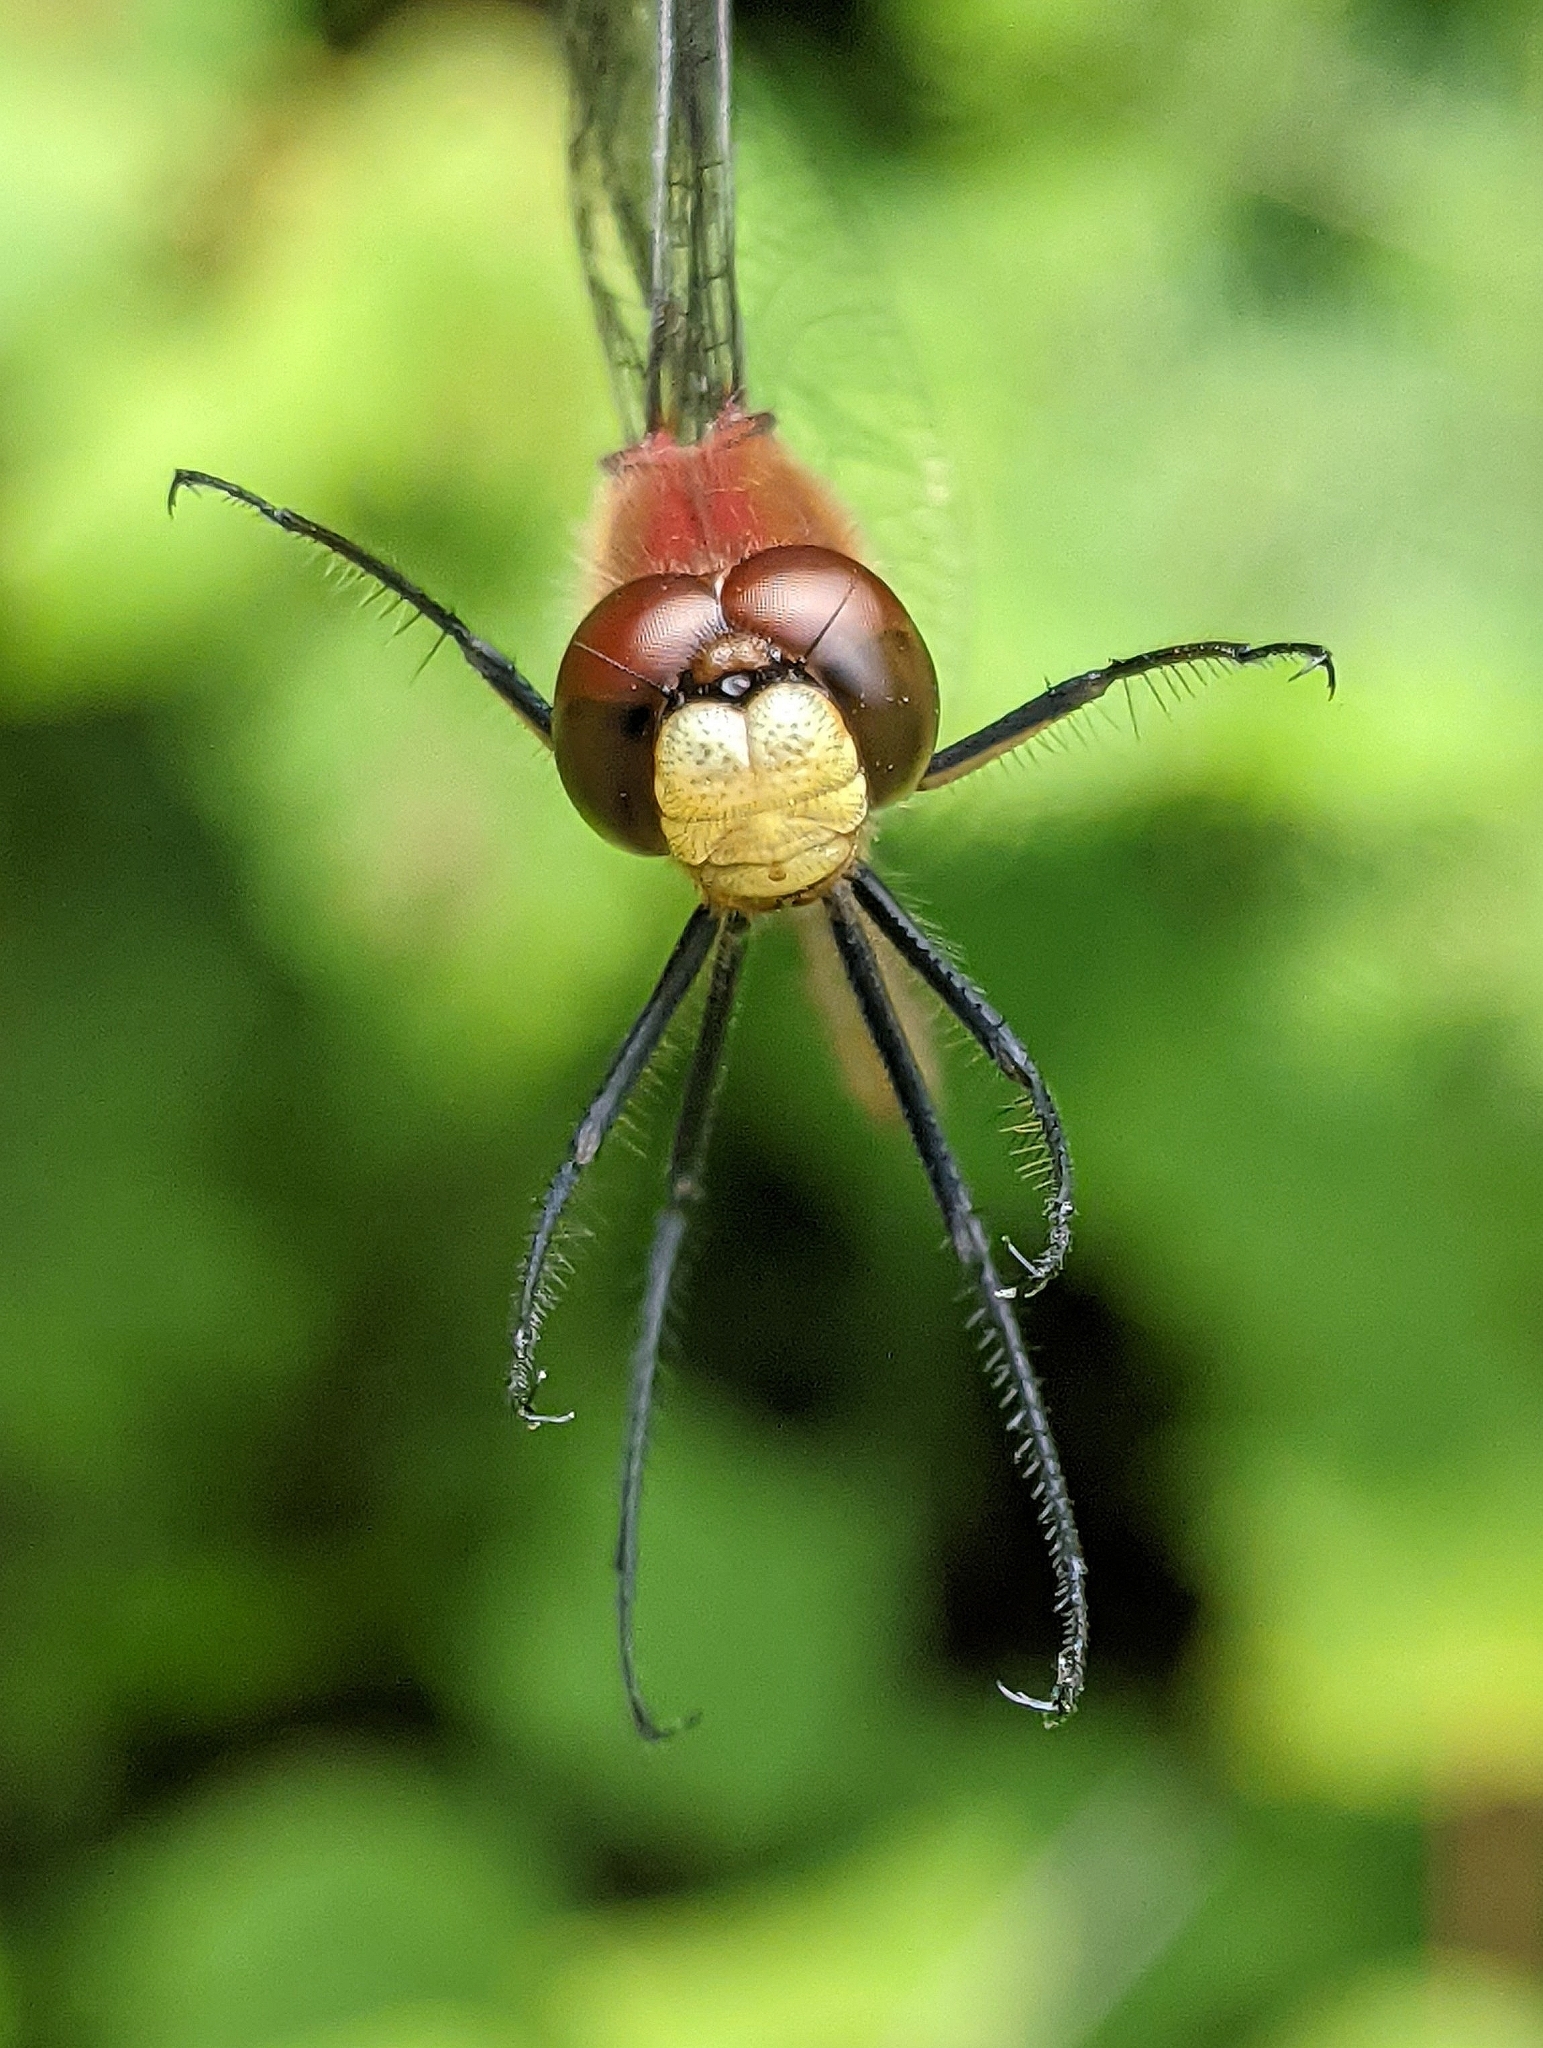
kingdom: Animalia
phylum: Arthropoda
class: Insecta
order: Odonata
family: Libellulidae
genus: Sympetrum
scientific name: Sympetrum internum
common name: Cherry-faced meadowhawk
